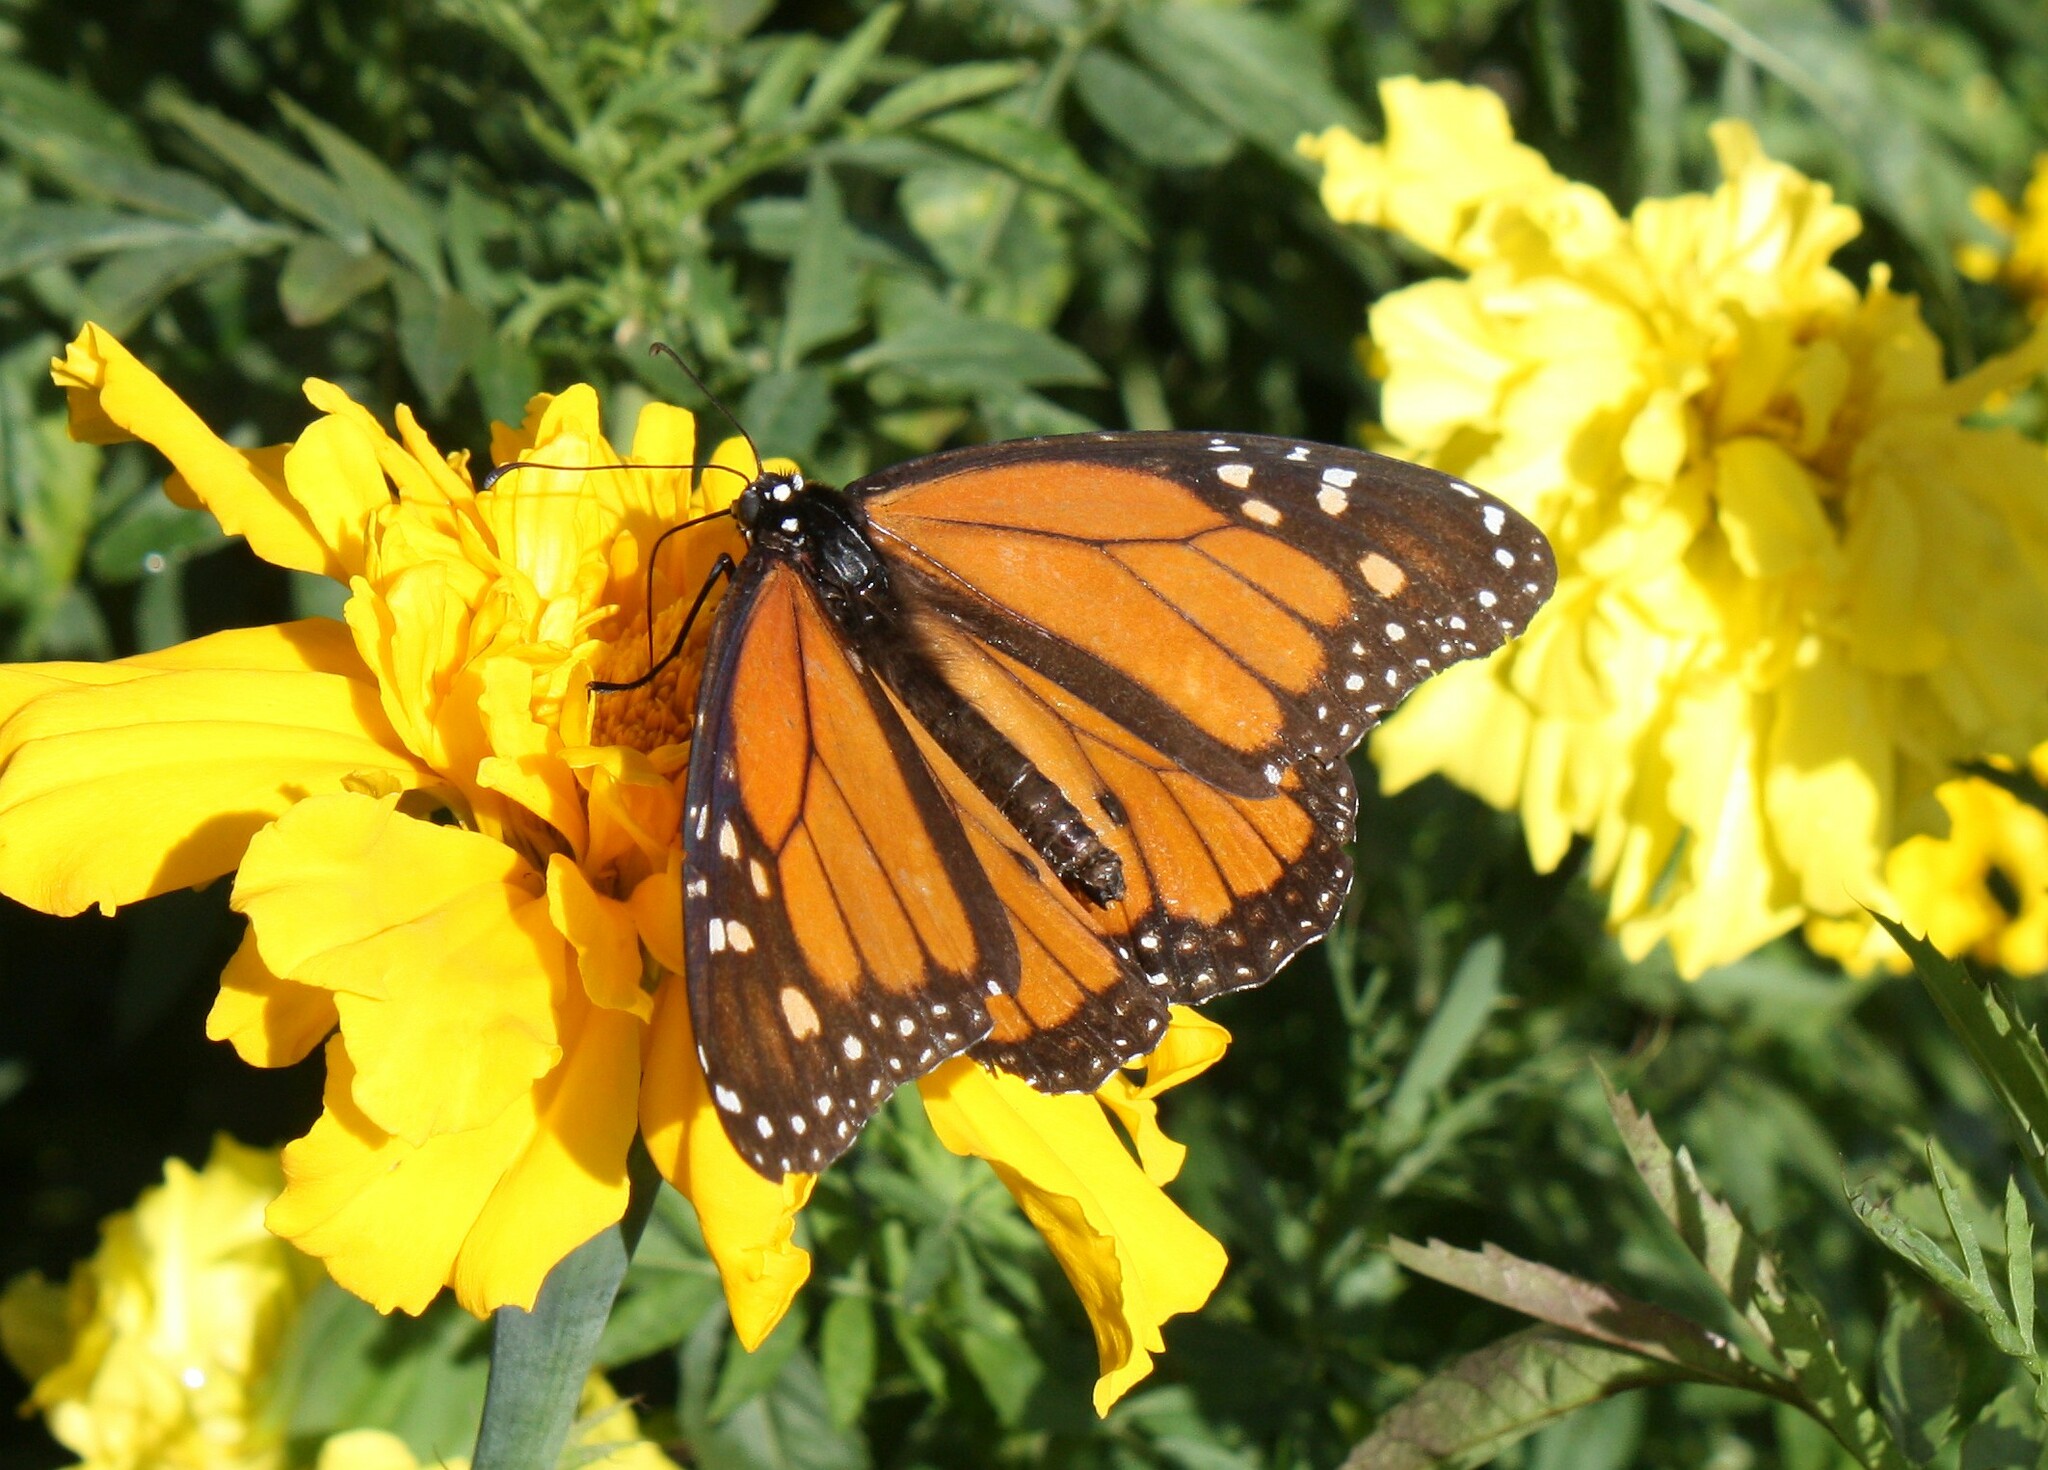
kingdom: Animalia
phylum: Arthropoda
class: Insecta
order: Lepidoptera
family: Nymphalidae
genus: Danaus
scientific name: Danaus plexippus
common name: Monarch
